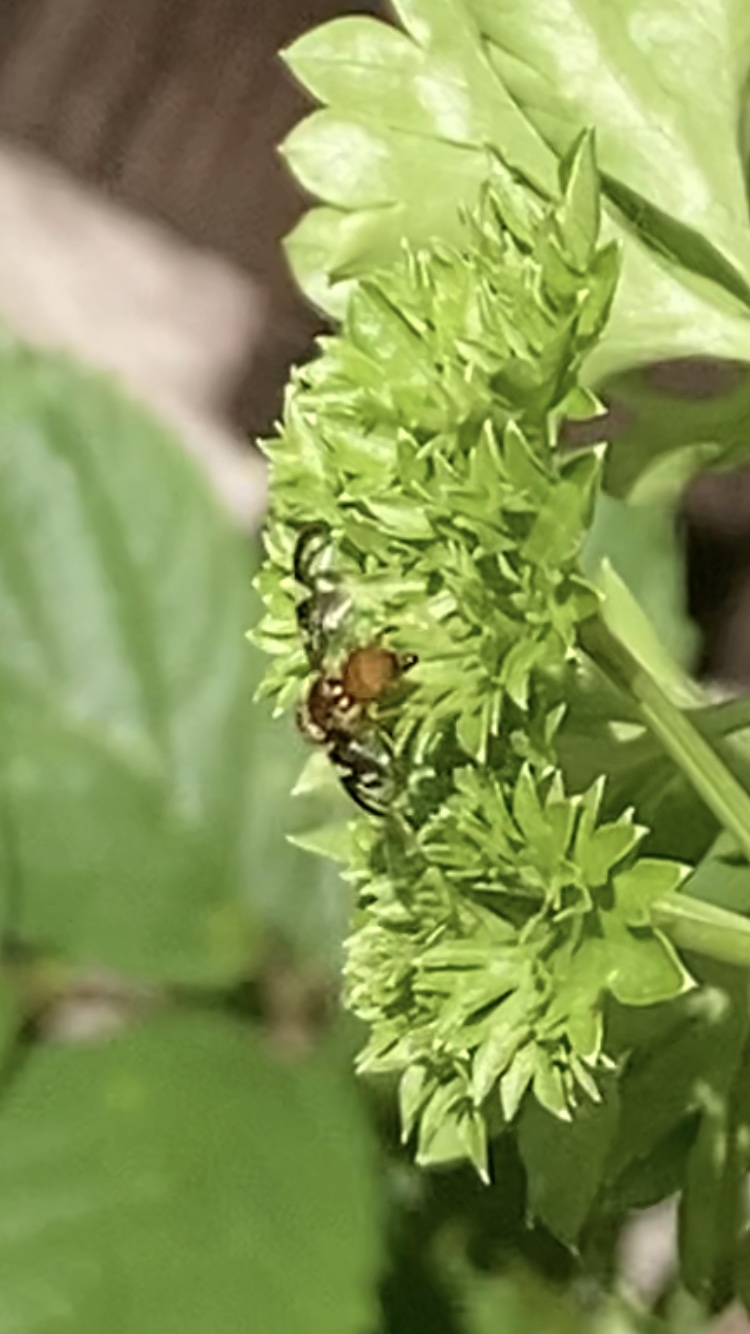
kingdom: Animalia
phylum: Arthropoda
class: Insecta
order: Diptera
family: Tephritidae
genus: Euleia
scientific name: Euleia heraclei
